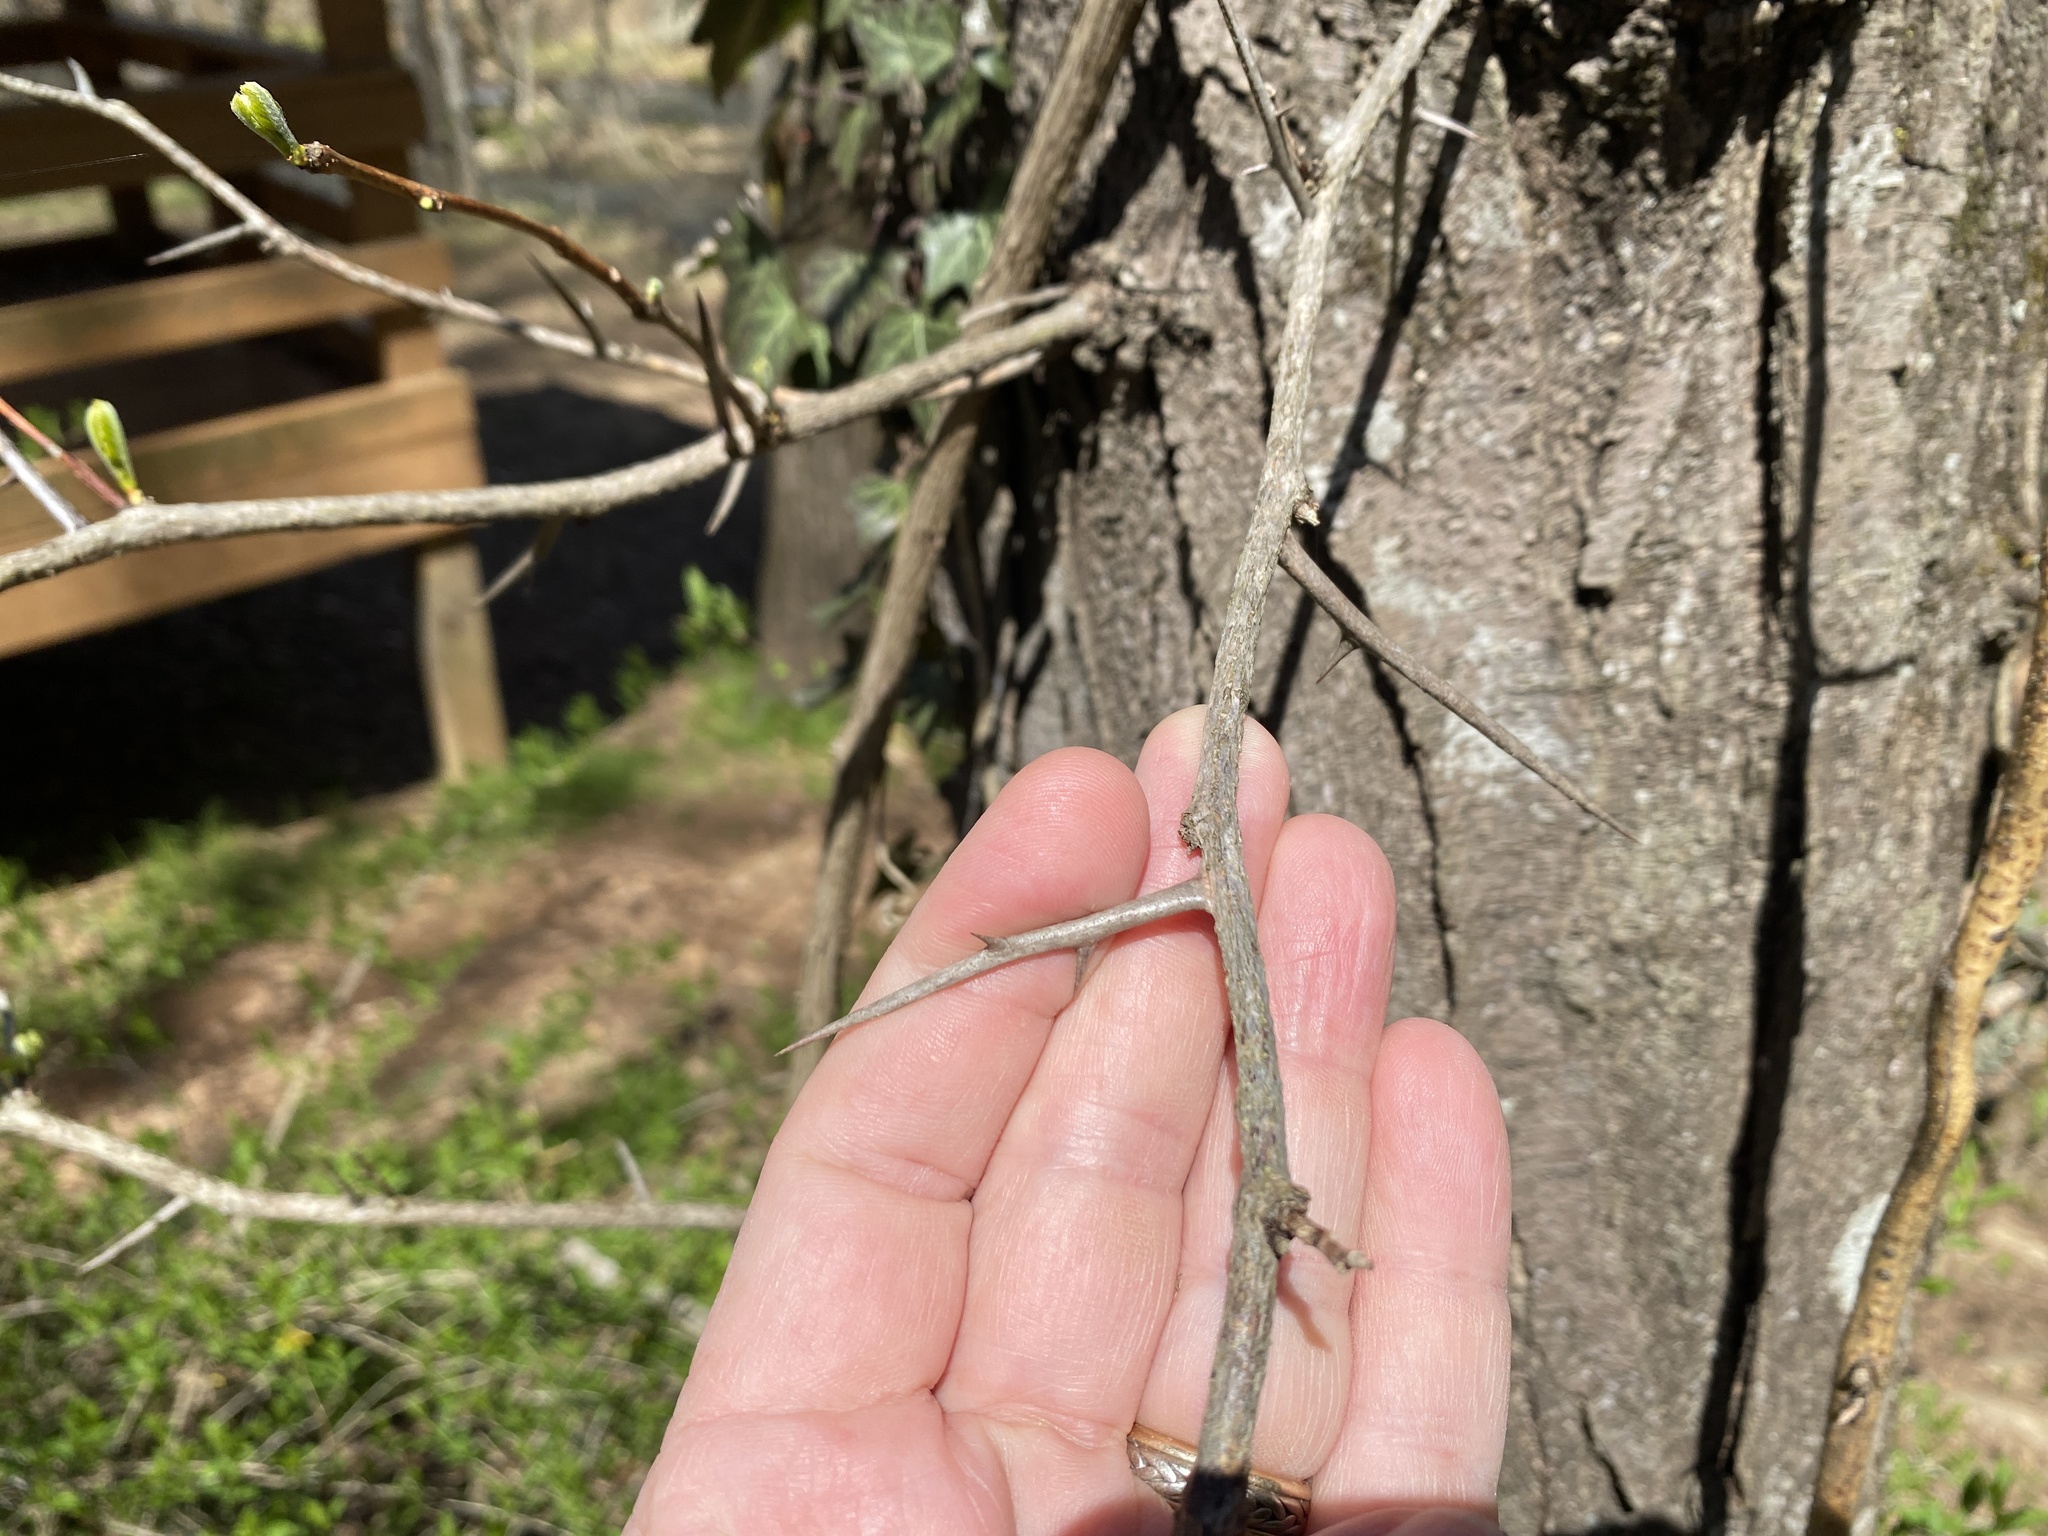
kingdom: Plantae
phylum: Tracheophyta
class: Magnoliopsida
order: Fabales
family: Fabaceae
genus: Gleditsia
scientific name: Gleditsia triacanthos
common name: Common honeylocust
